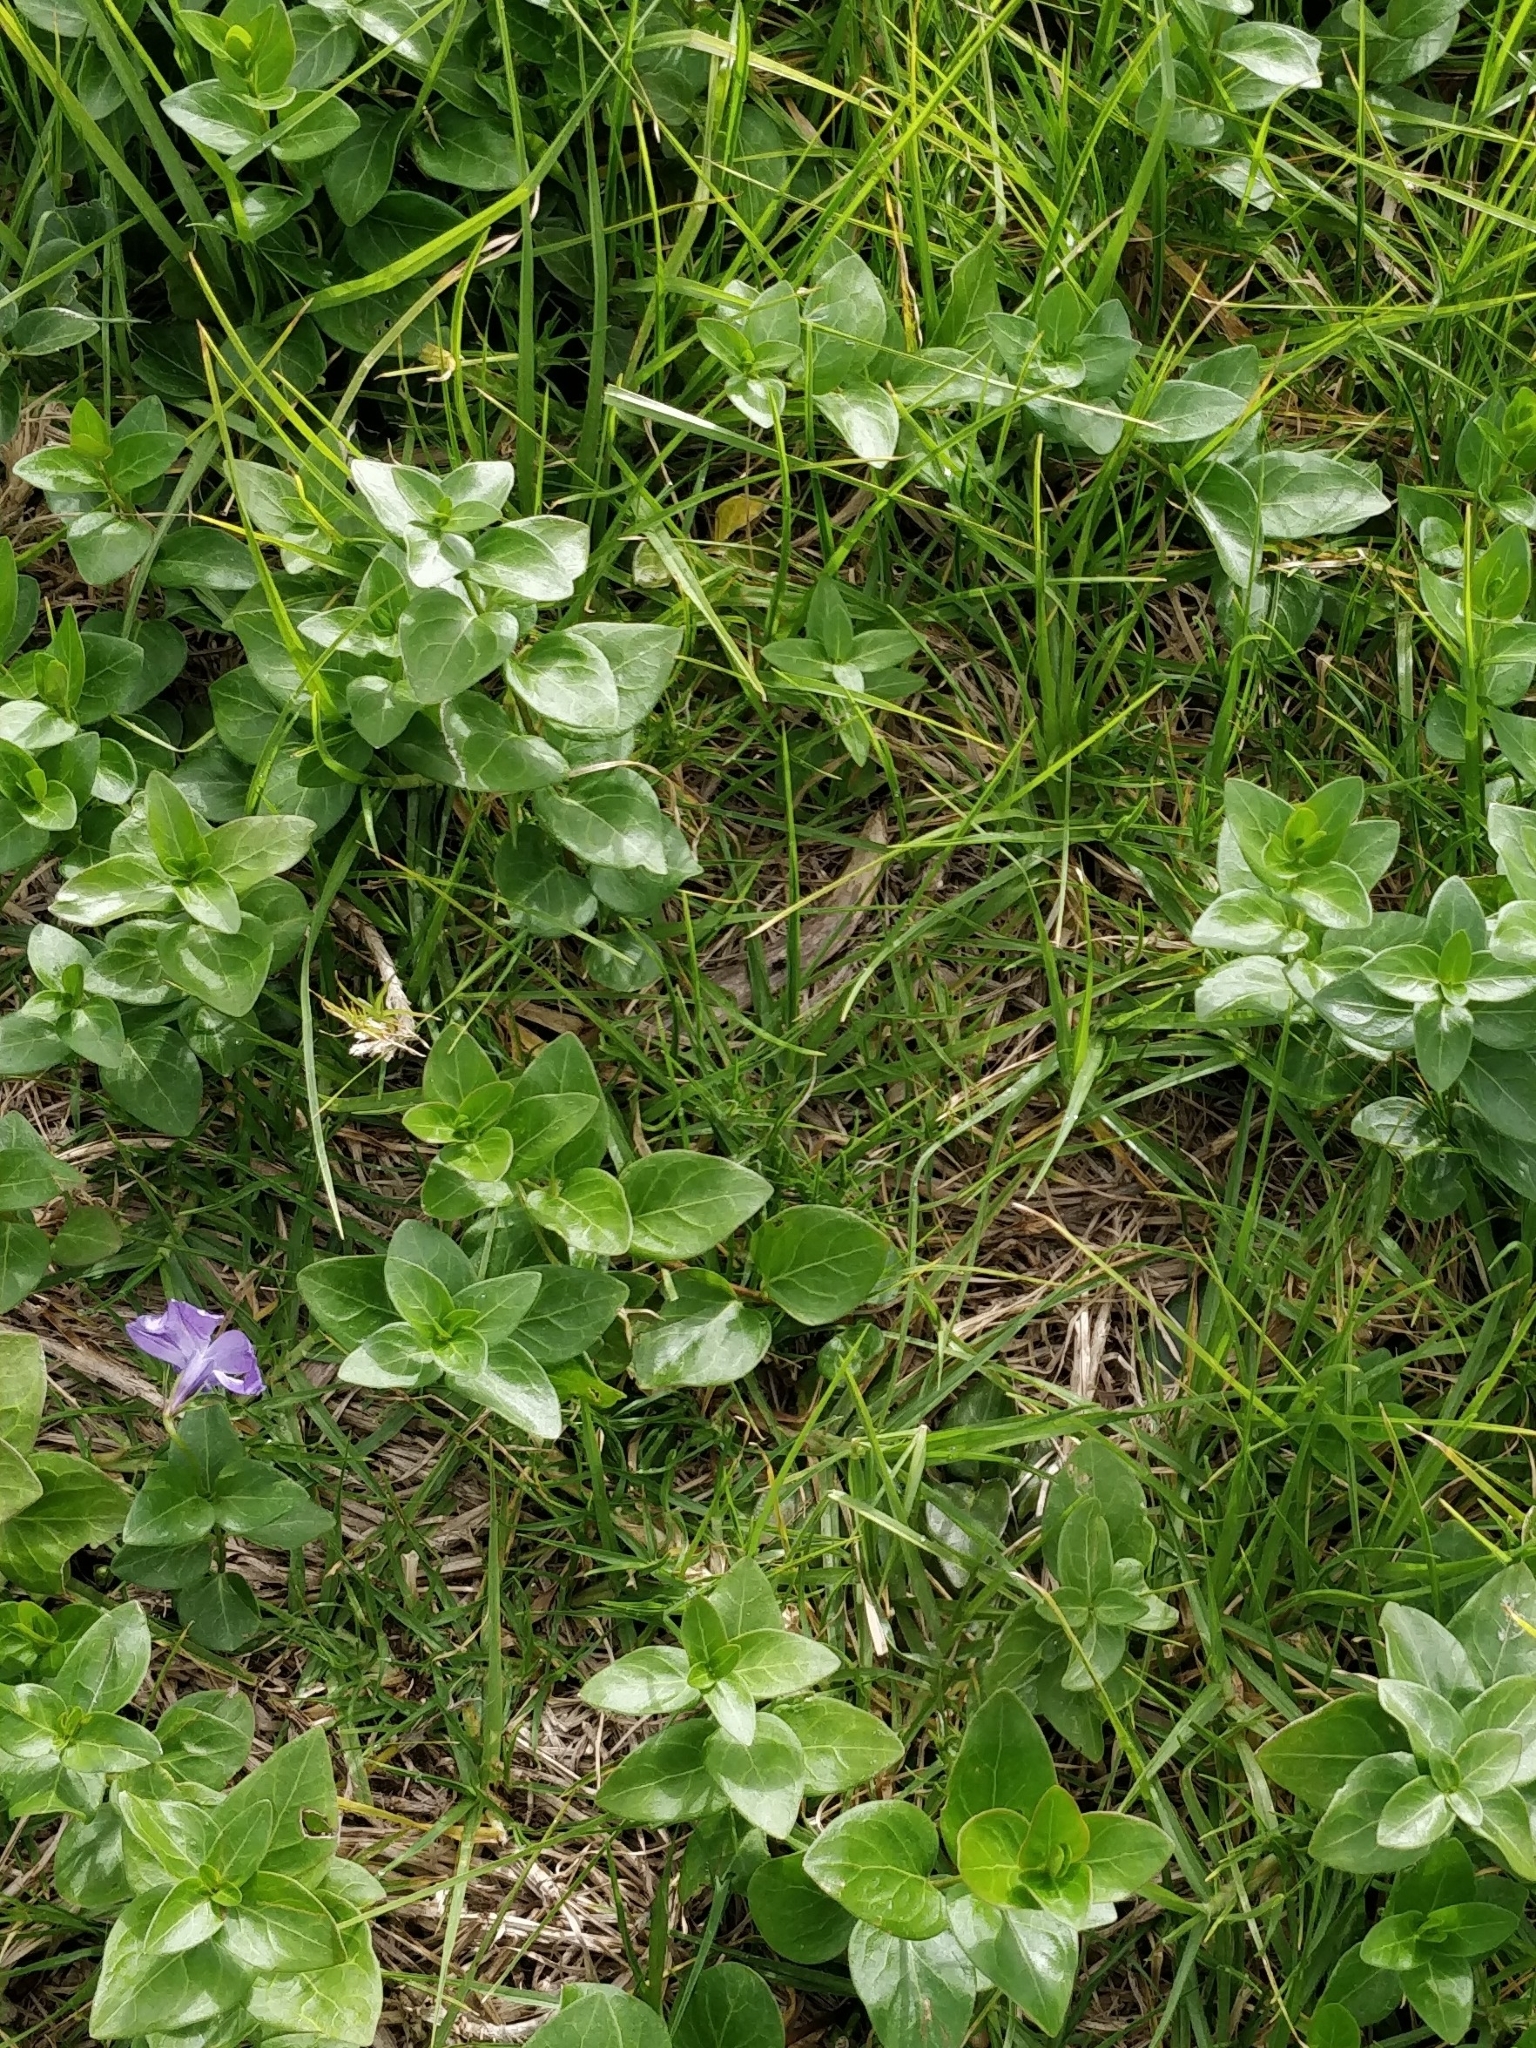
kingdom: Plantae
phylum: Tracheophyta
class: Magnoliopsida
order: Gentianales
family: Apocynaceae
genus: Vinca
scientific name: Vinca major
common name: Greater periwinkle
